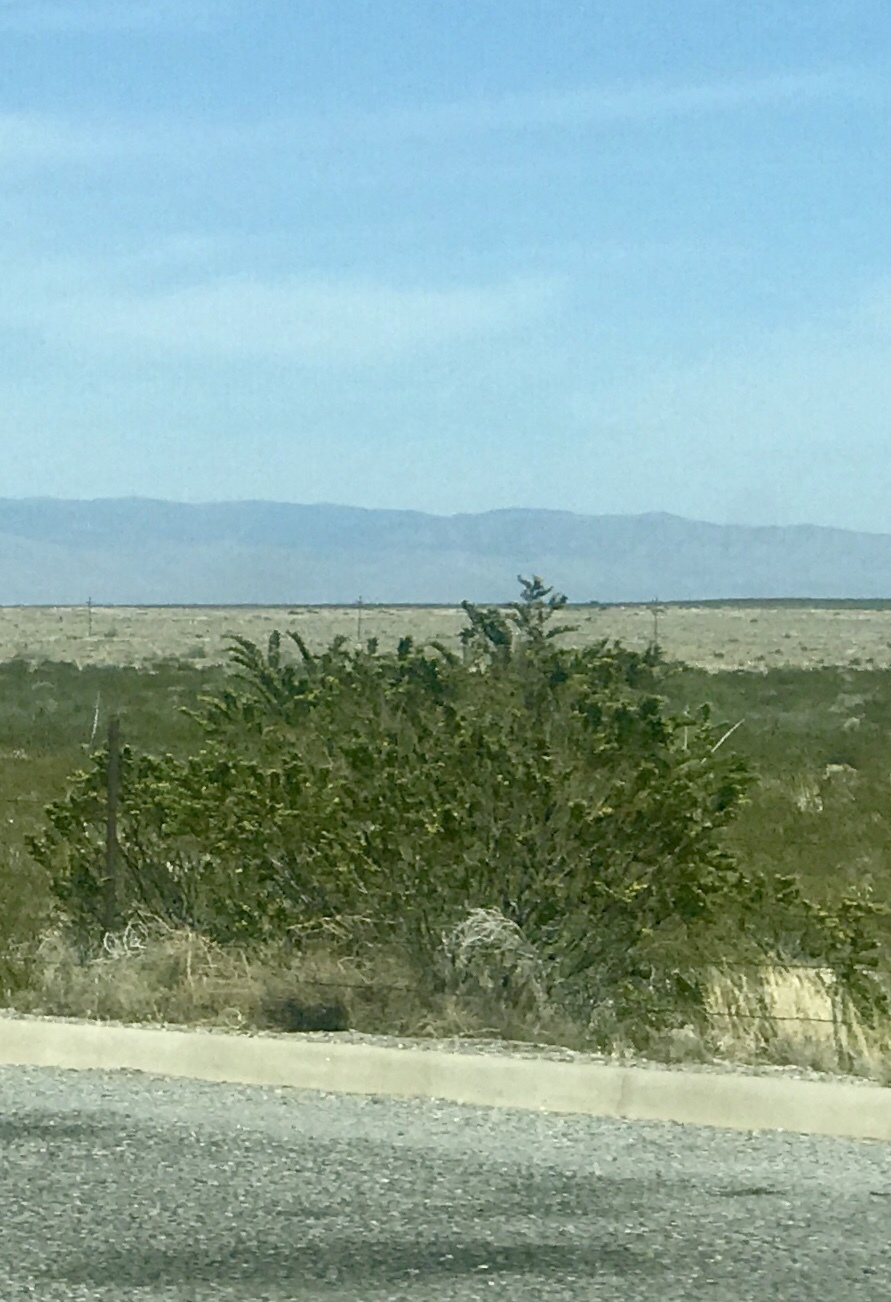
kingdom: Plantae
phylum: Tracheophyta
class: Magnoliopsida
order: Zygophyllales
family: Zygophyllaceae
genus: Larrea
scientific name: Larrea tridentata
